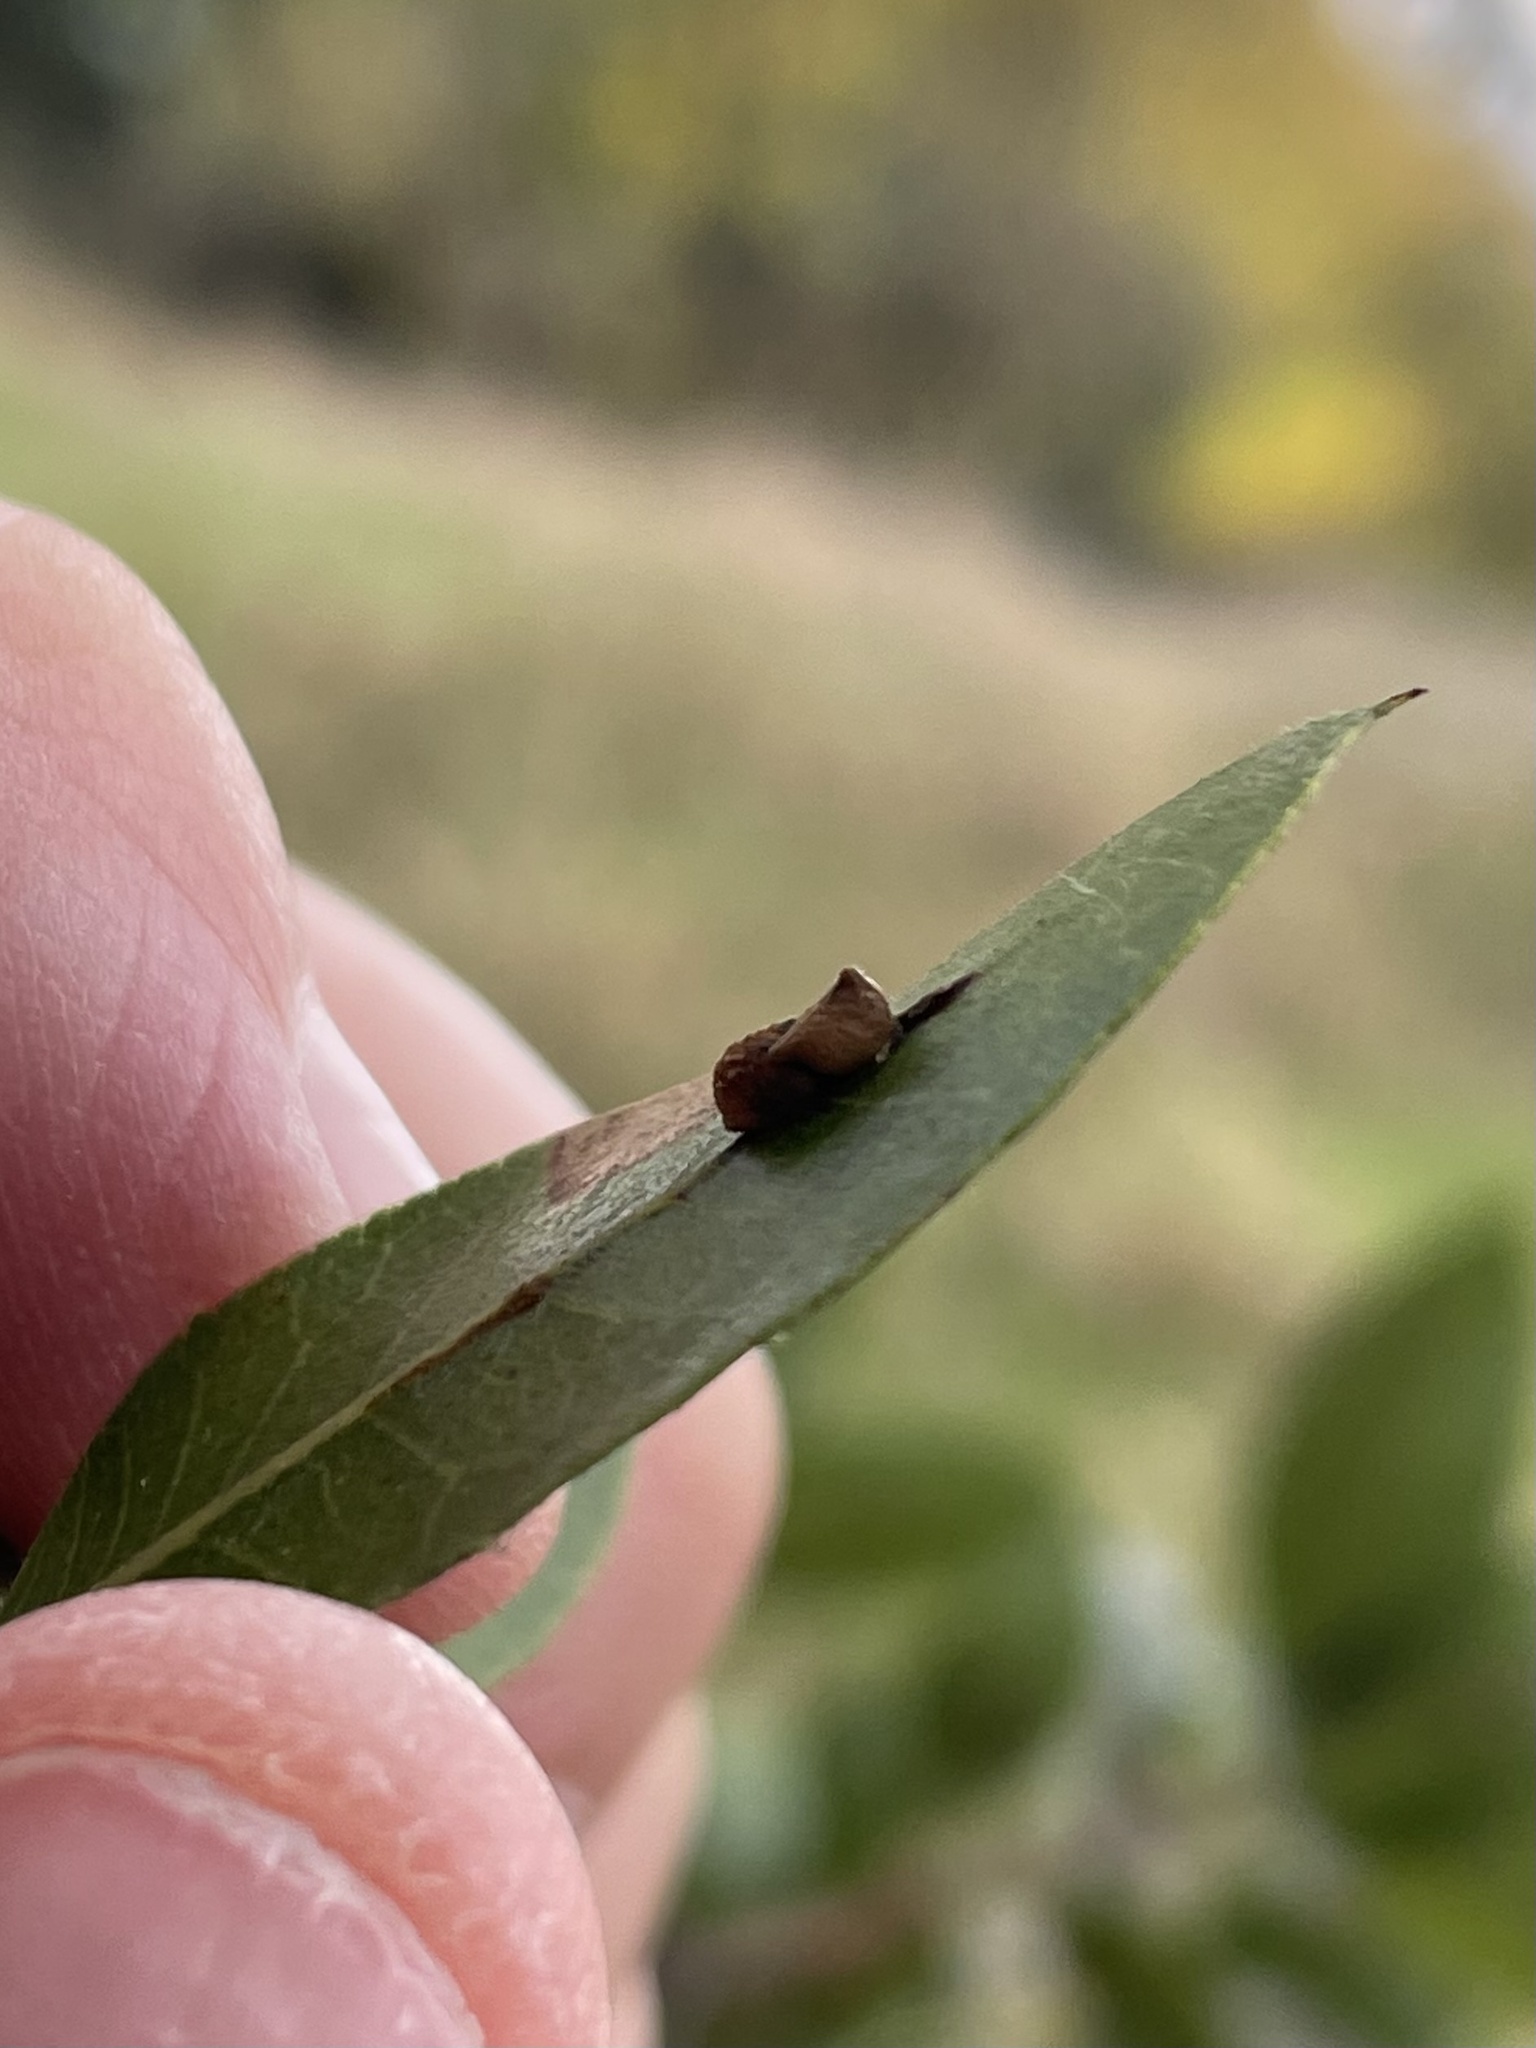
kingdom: Animalia
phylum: Arthropoda
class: Insecta
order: Hymenoptera
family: Cynipidae
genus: Dryocosmus
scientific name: Dryocosmus
